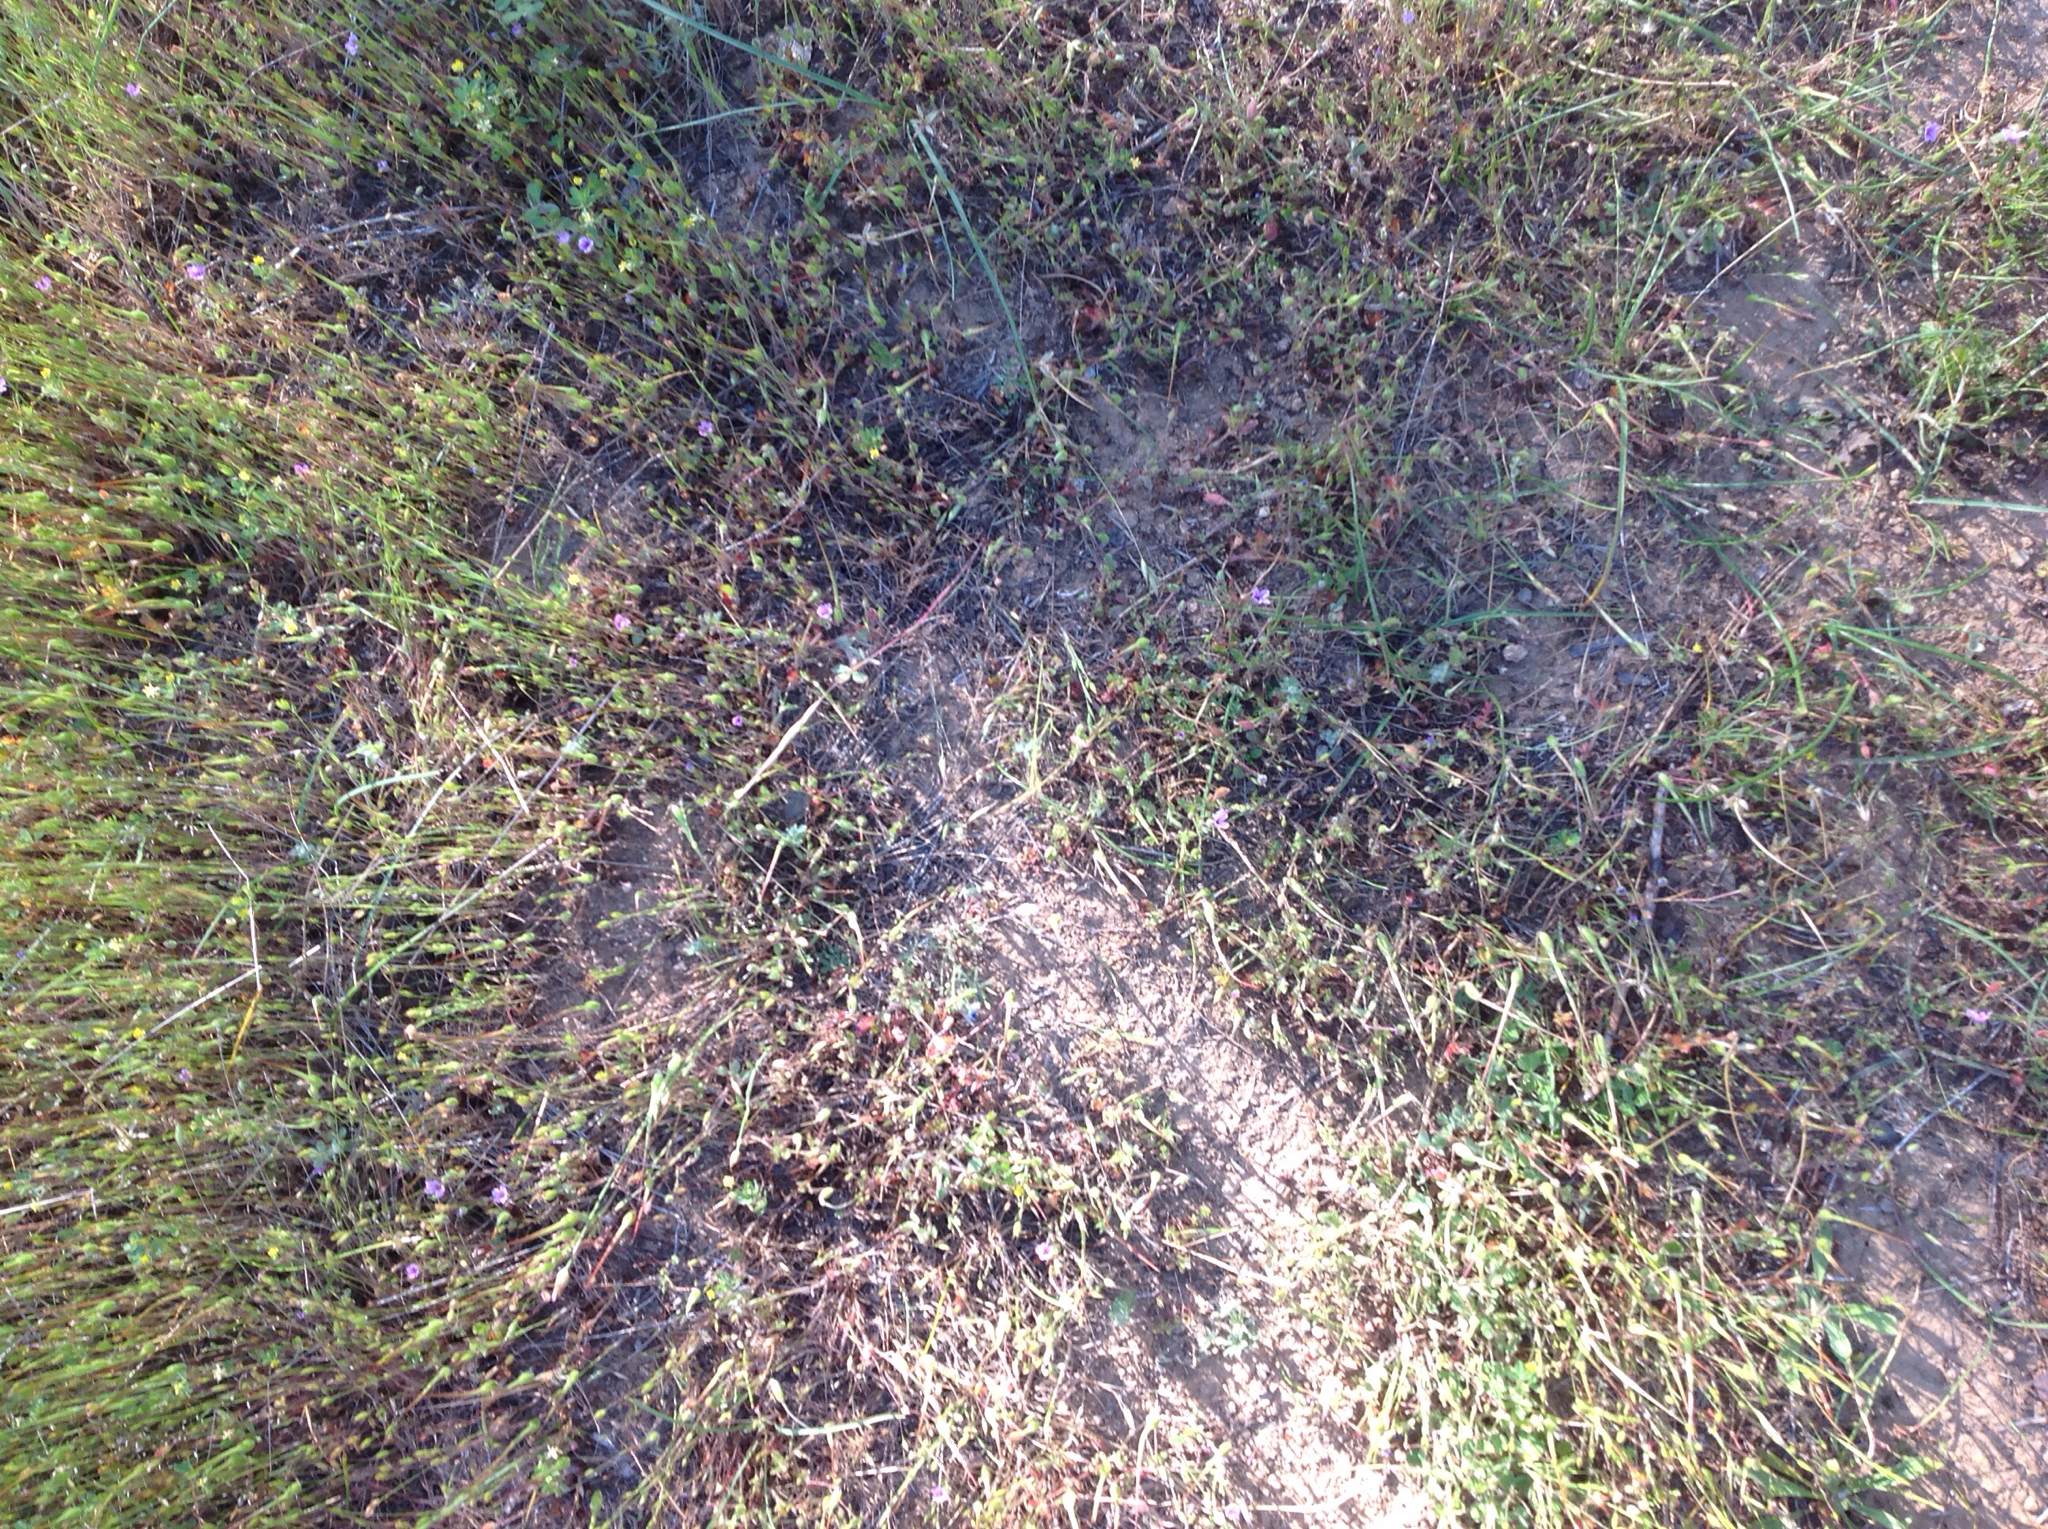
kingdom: Plantae
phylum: Tracheophyta
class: Magnoliopsida
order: Geraniales
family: Geraniaceae
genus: Erodium
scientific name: Erodium
